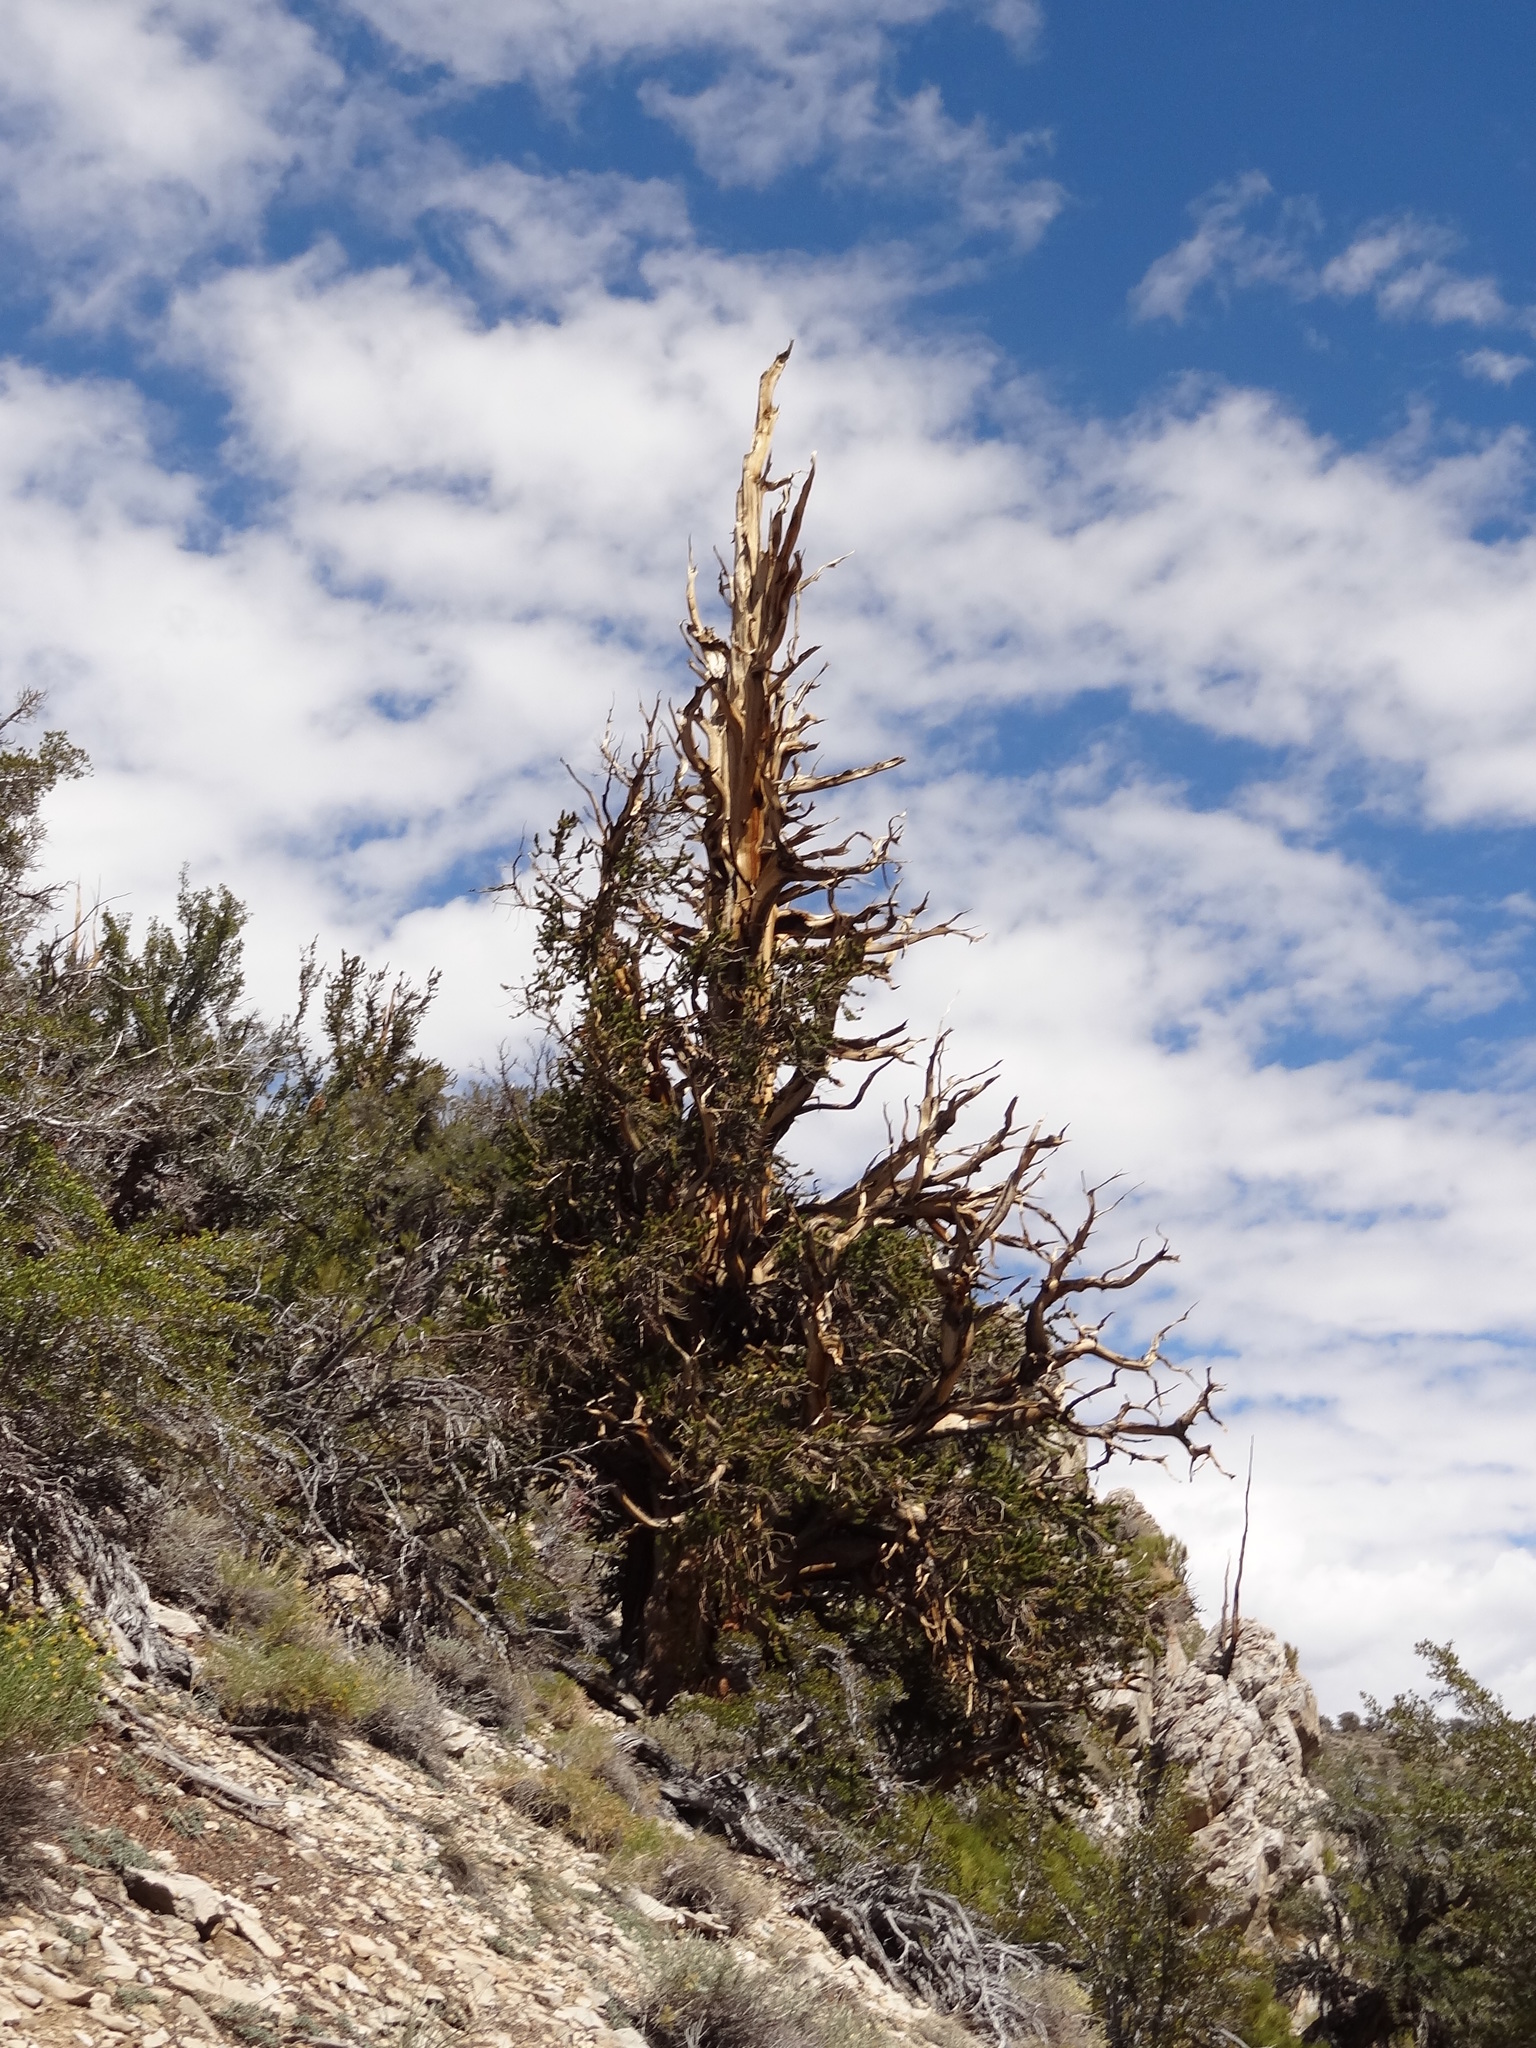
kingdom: Plantae
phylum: Tracheophyta
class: Pinopsida
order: Pinales
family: Pinaceae
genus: Pinus
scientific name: Pinus longaeva
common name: Intermountain bristlecone pine
